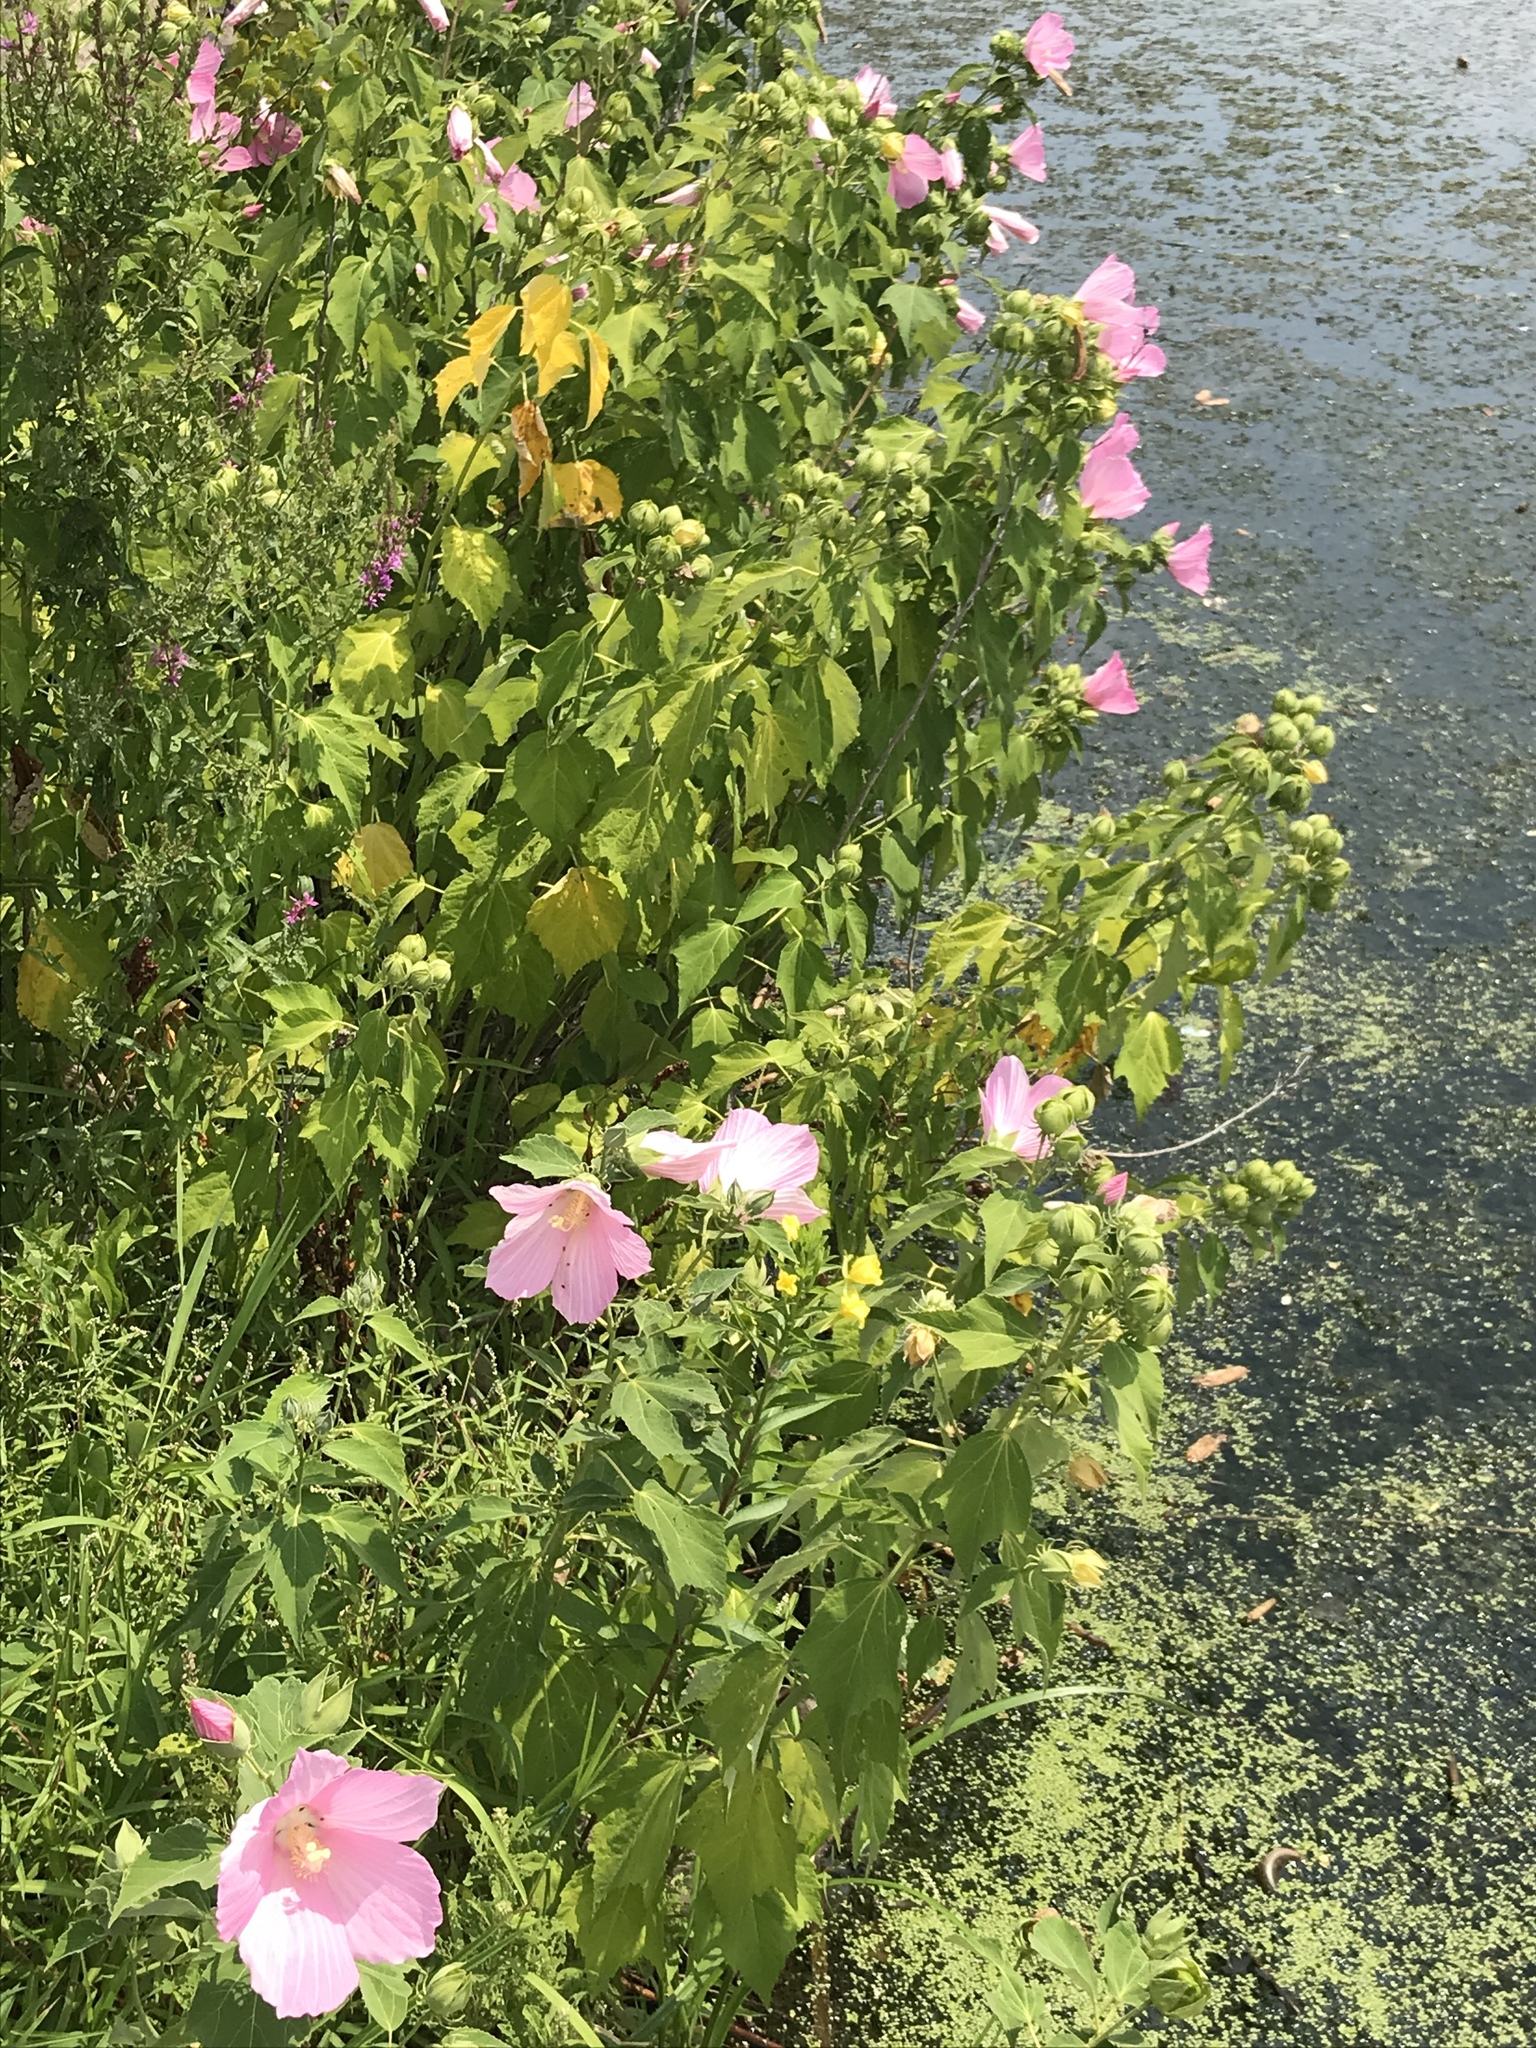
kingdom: Plantae
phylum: Tracheophyta
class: Magnoliopsida
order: Malvales
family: Malvaceae
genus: Hibiscus
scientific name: Hibiscus moscheutos
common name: Common rose-mallow
